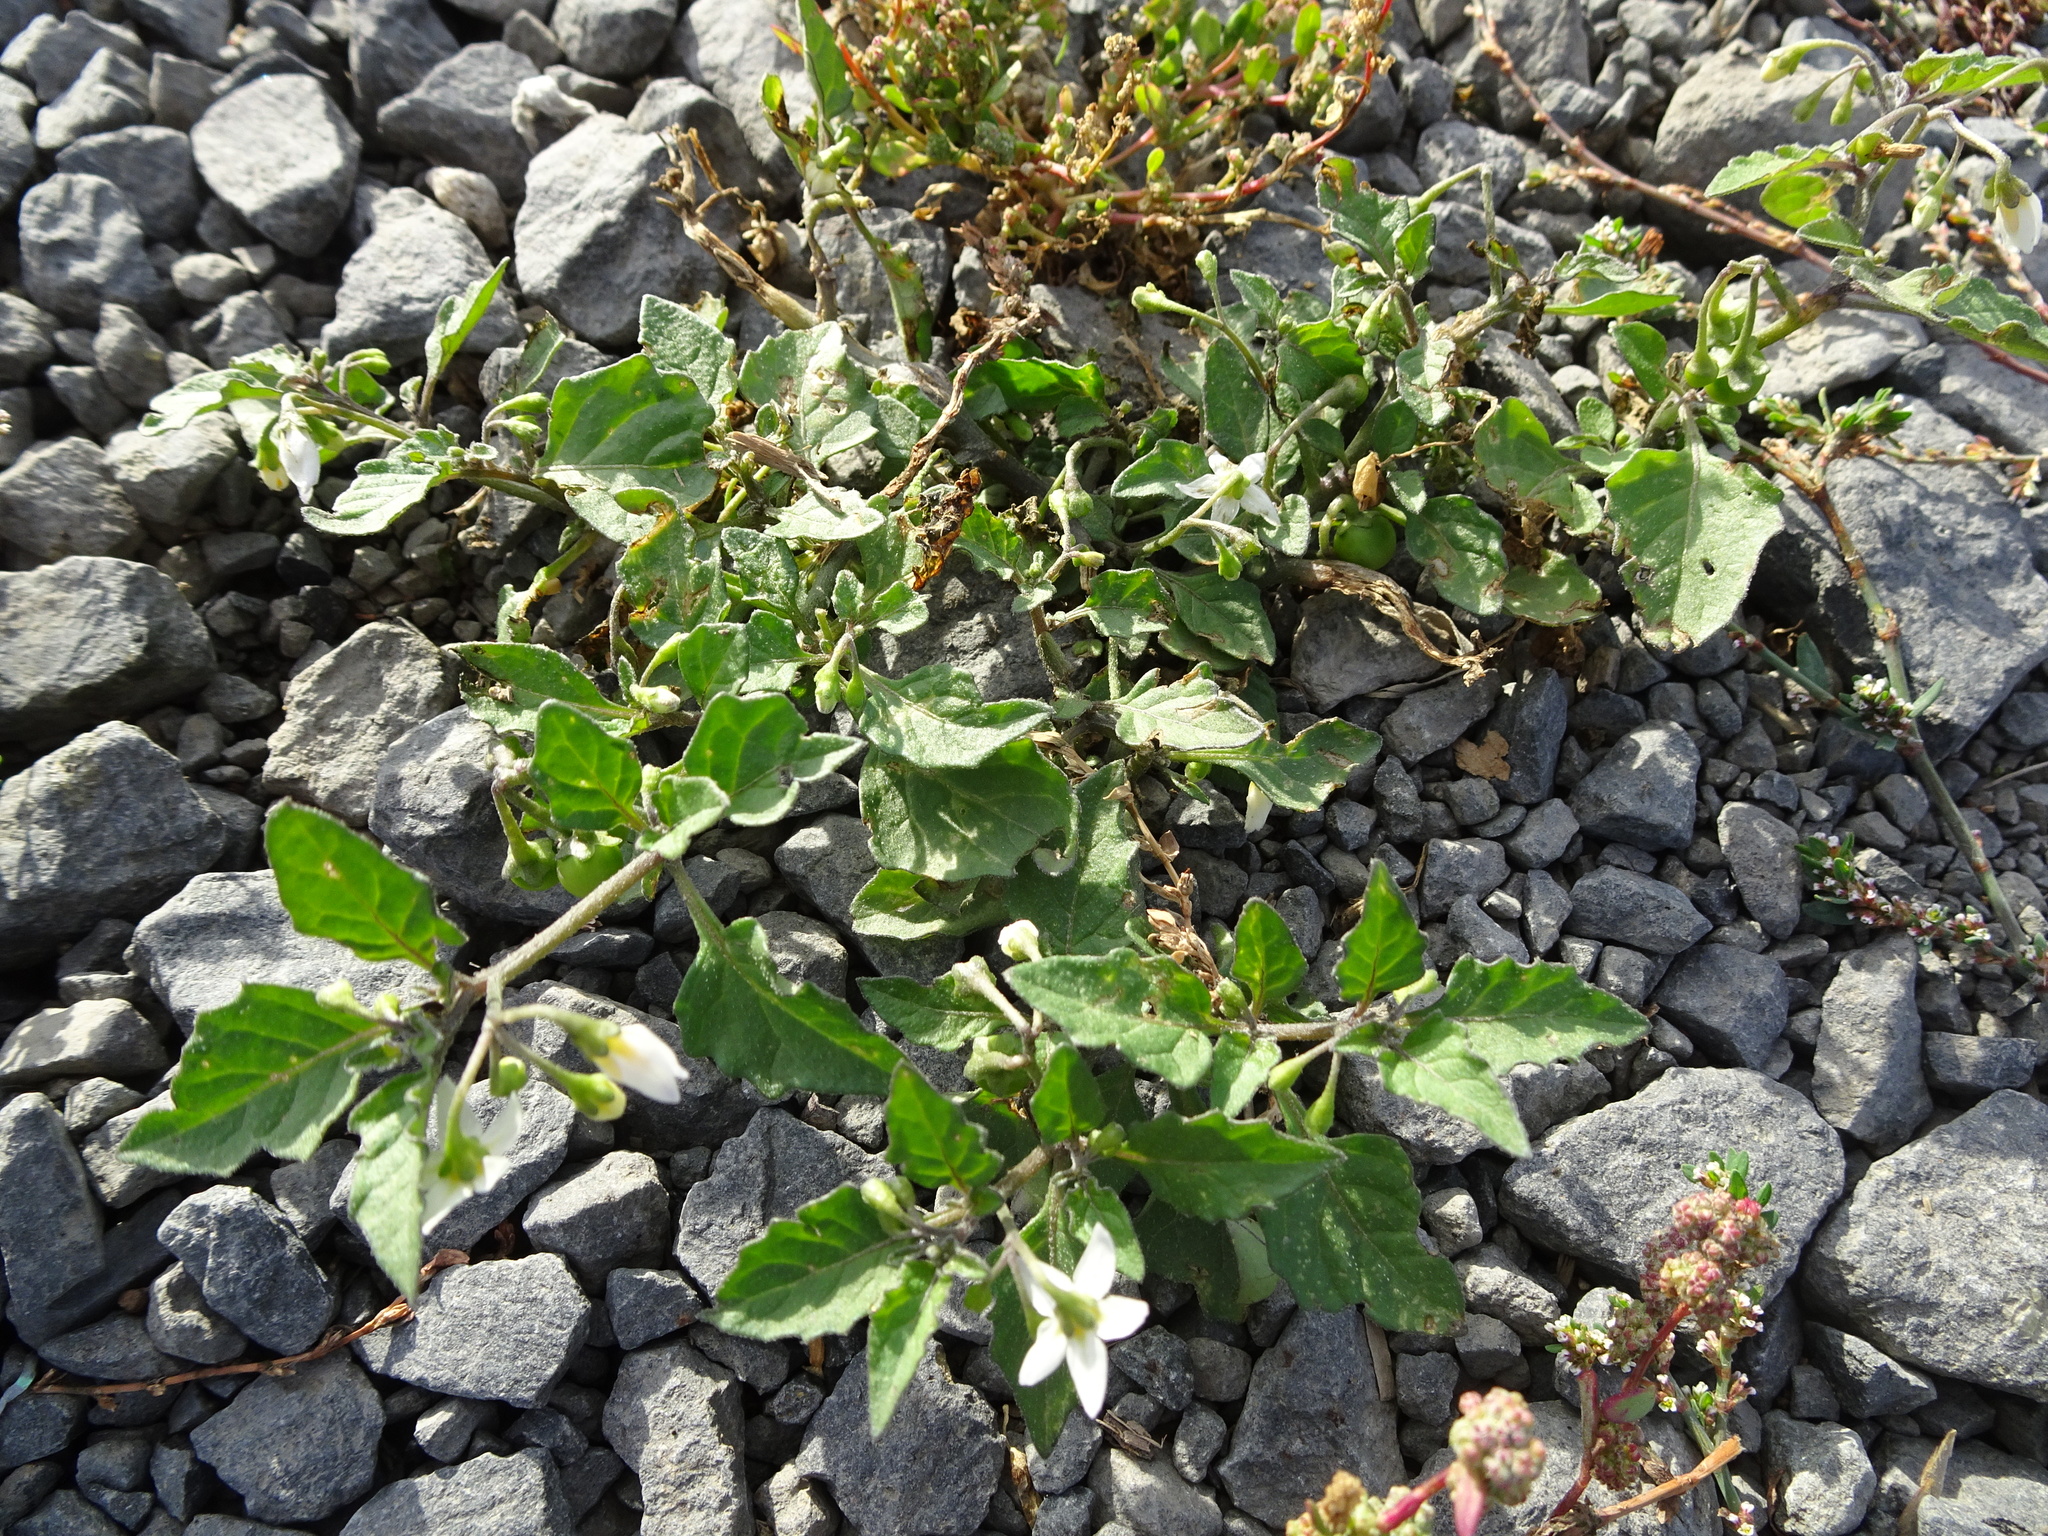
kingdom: Plantae
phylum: Tracheophyta
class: Magnoliopsida
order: Solanales
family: Solanaceae
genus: Solanum
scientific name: Solanum nigrum
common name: Black nightshade
